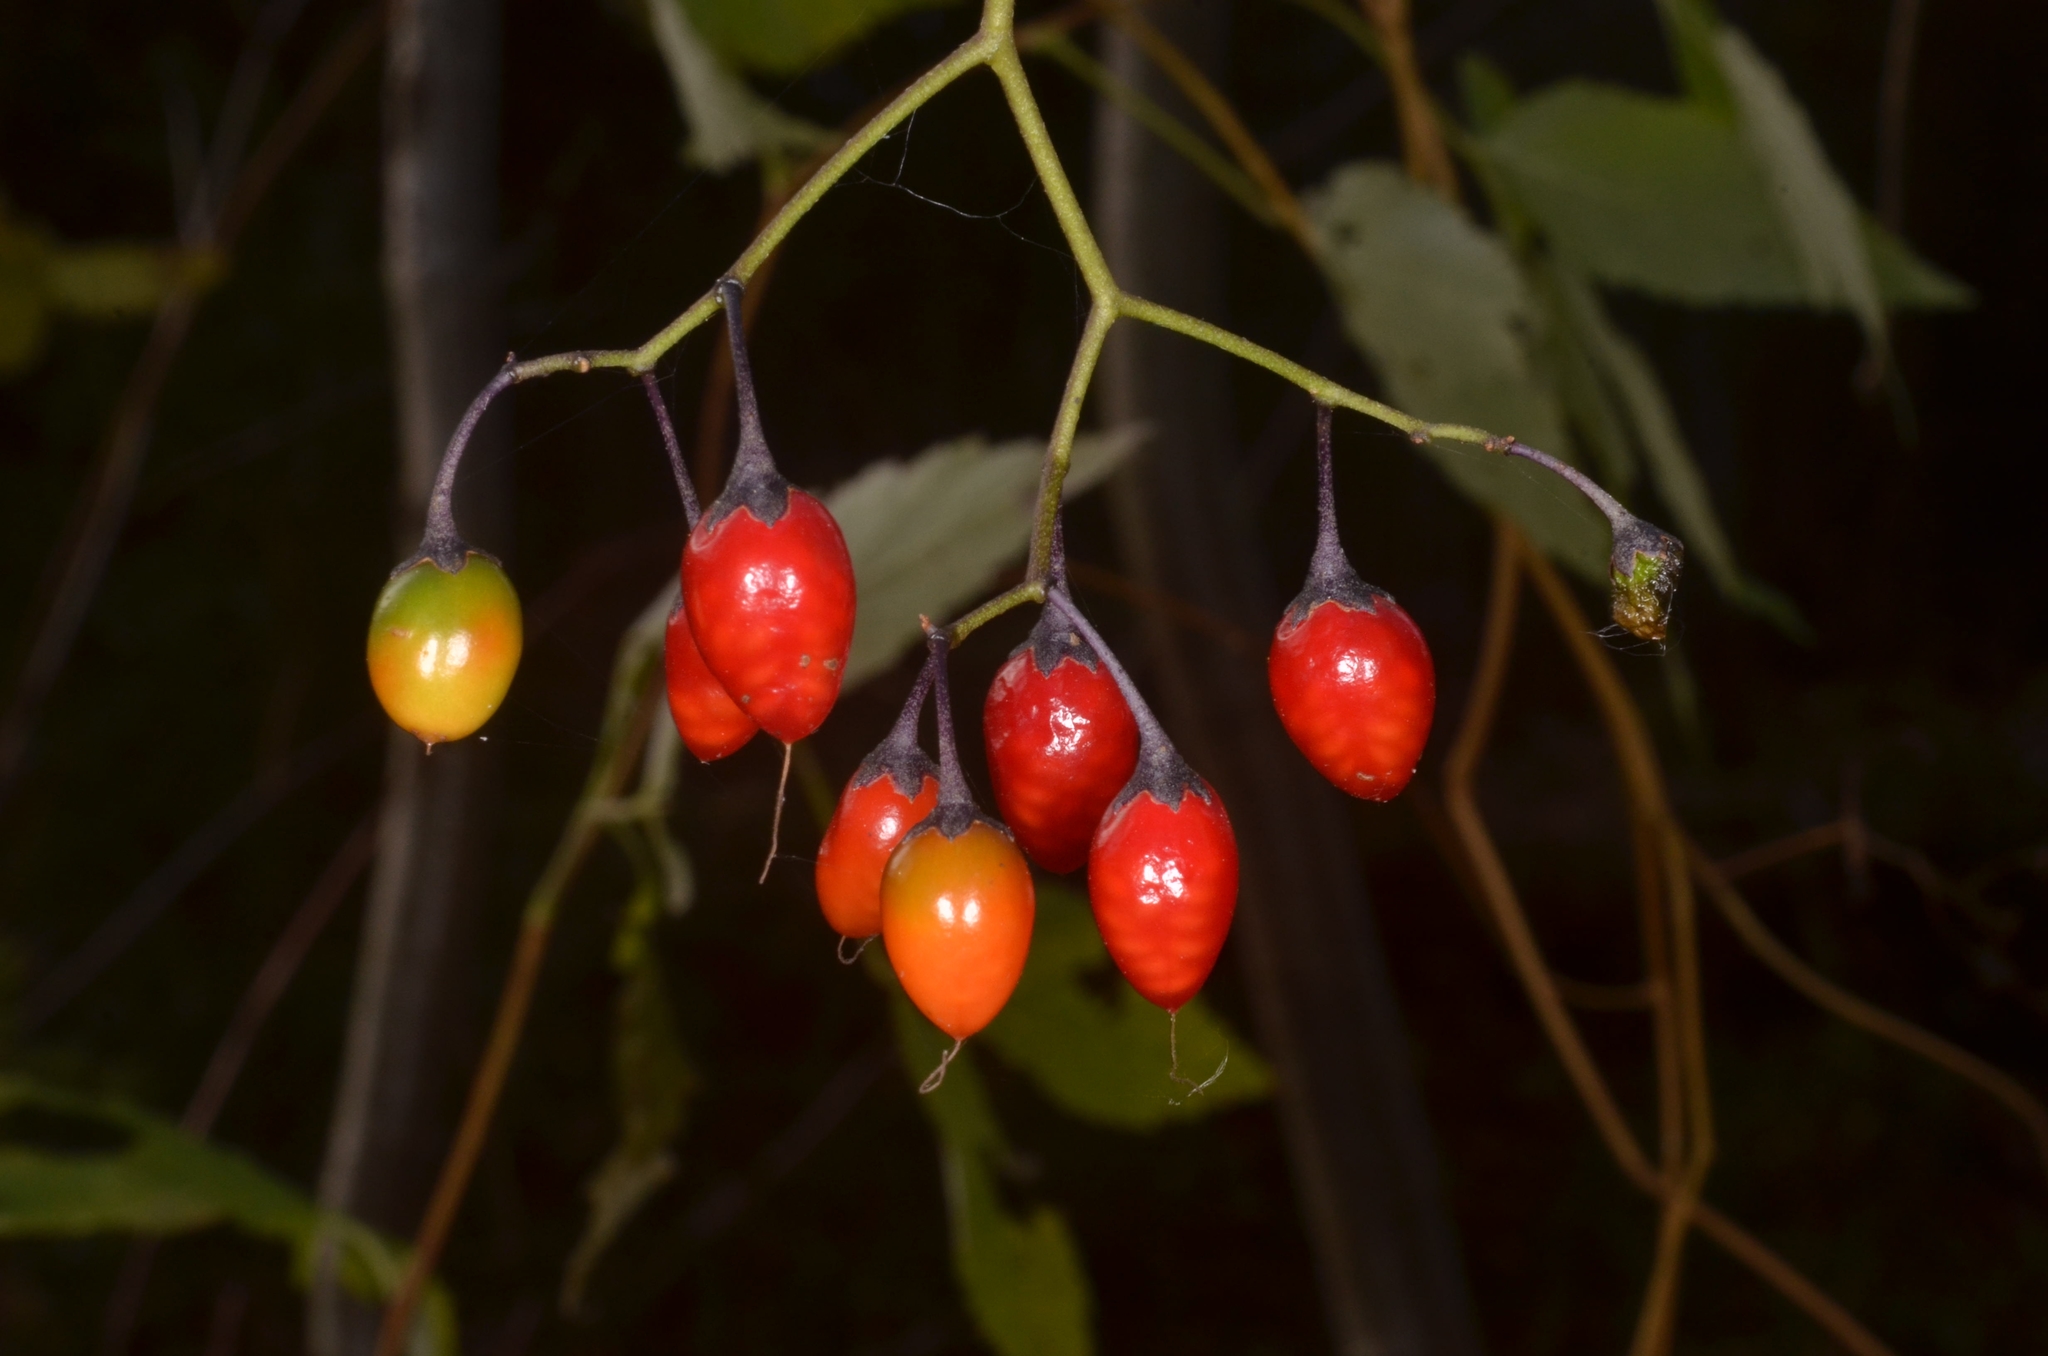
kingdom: Plantae
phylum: Tracheophyta
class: Magnoliopsida
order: Solanales
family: Solanaceae
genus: Solanum
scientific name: Solanum dulcamara
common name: Climbing nightshade
